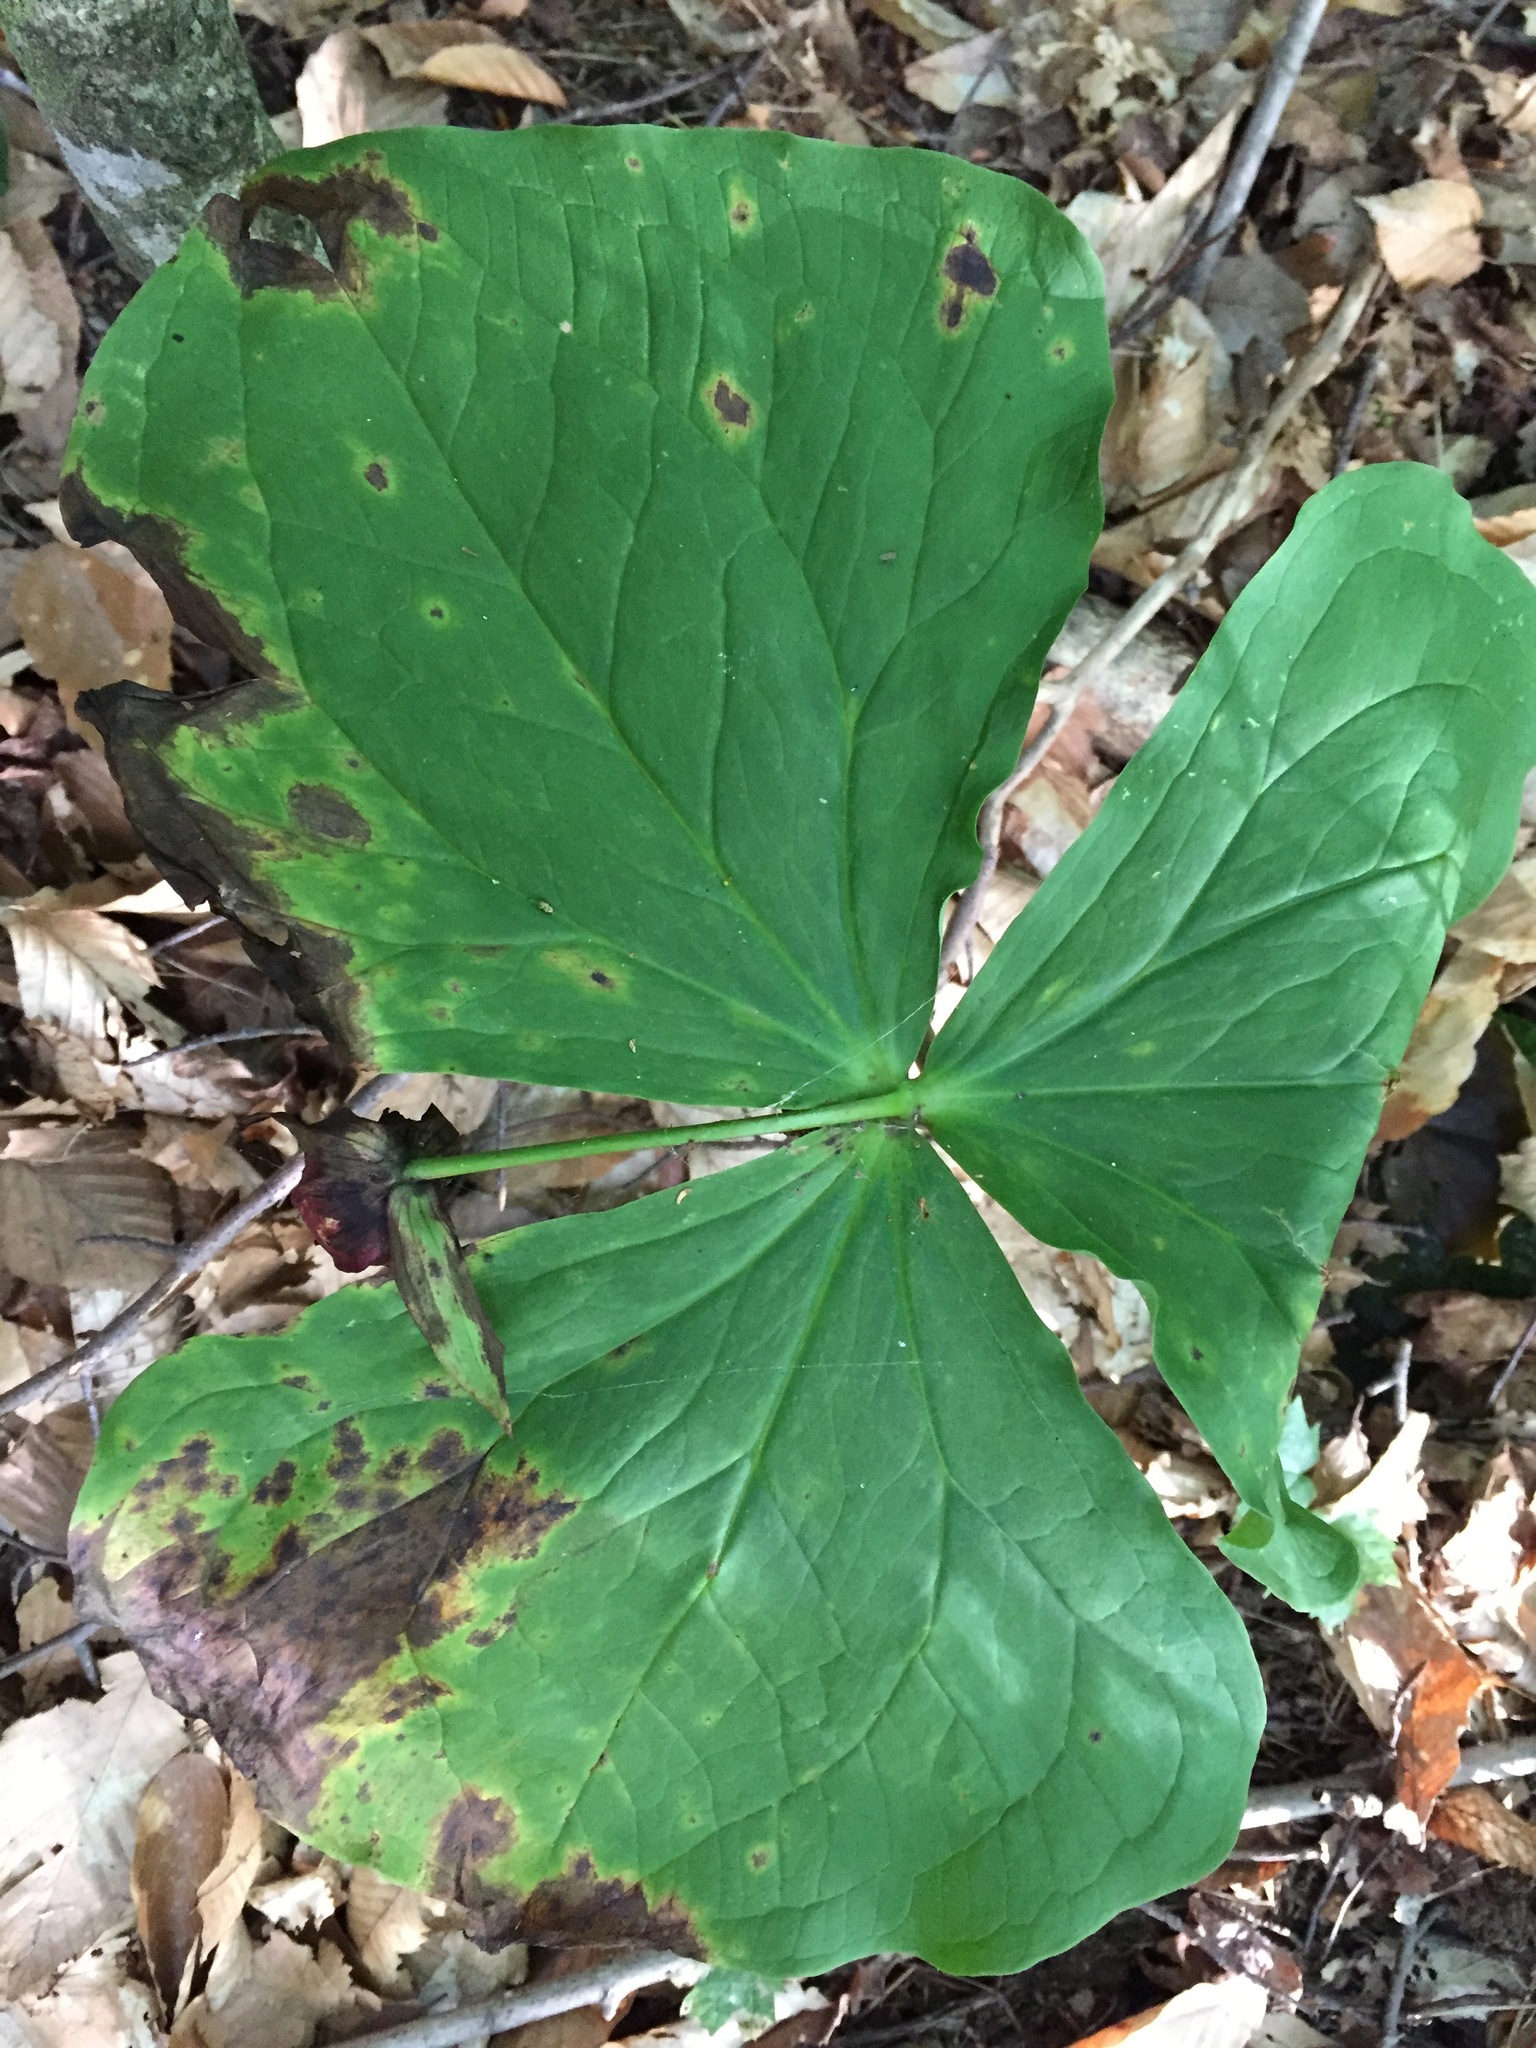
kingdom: Plantae
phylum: Tracheophyta
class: Liliopsida
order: Liliales
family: Melanthiaceae
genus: Trillium
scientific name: Trillium erectum
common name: Purple trillium
